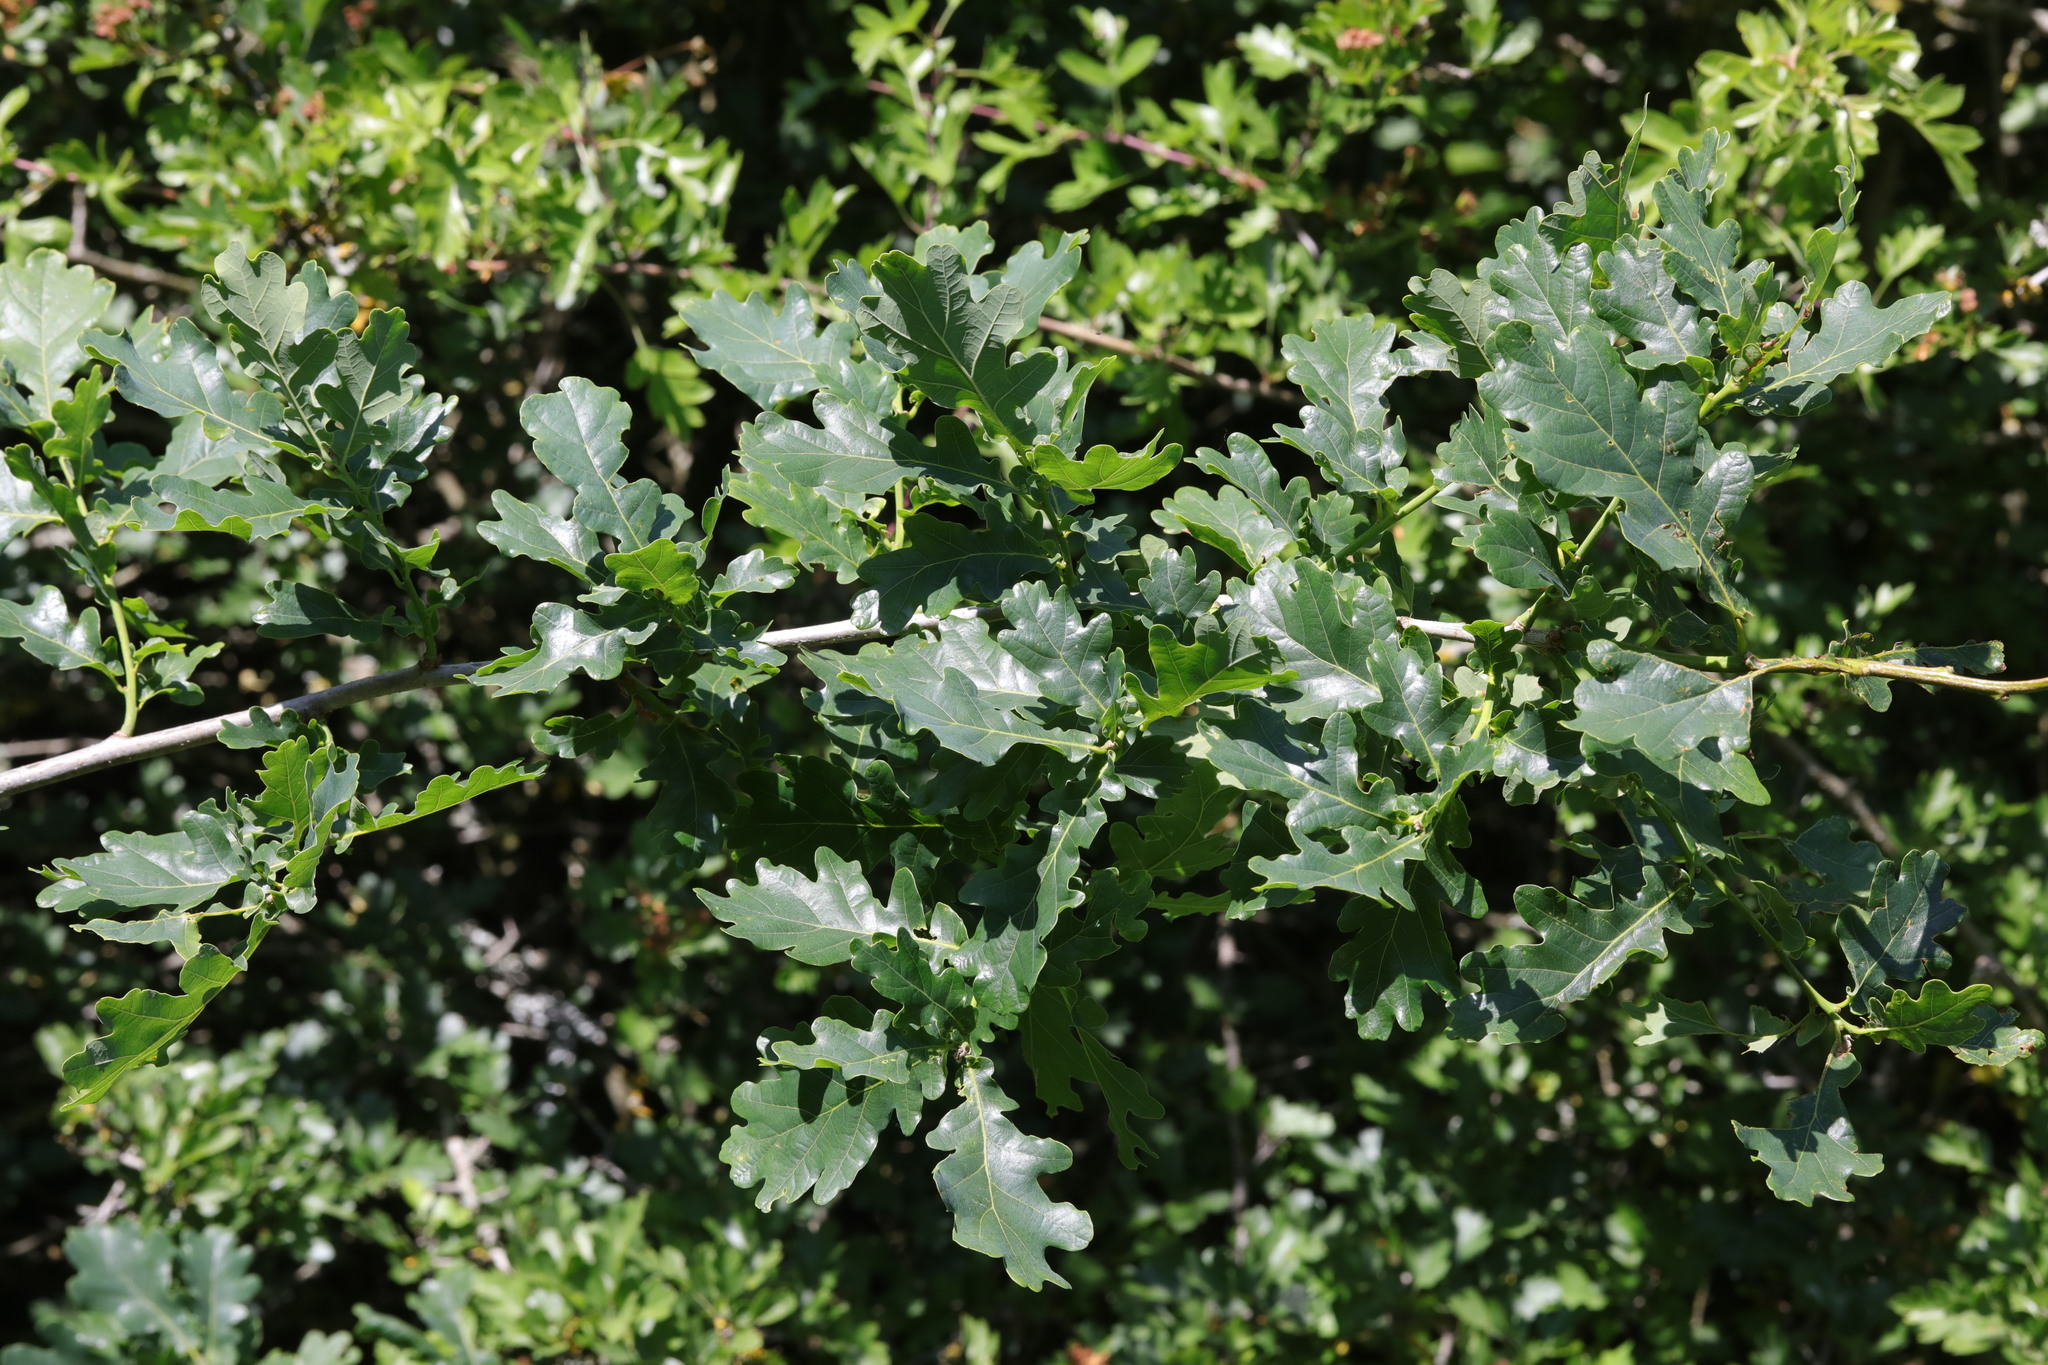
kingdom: Plantae
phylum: Tracheophyta
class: Magnoliopsida
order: Fagales
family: Fagaceae
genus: Quercus
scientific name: Quercus robur
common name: Pedunculate oak
